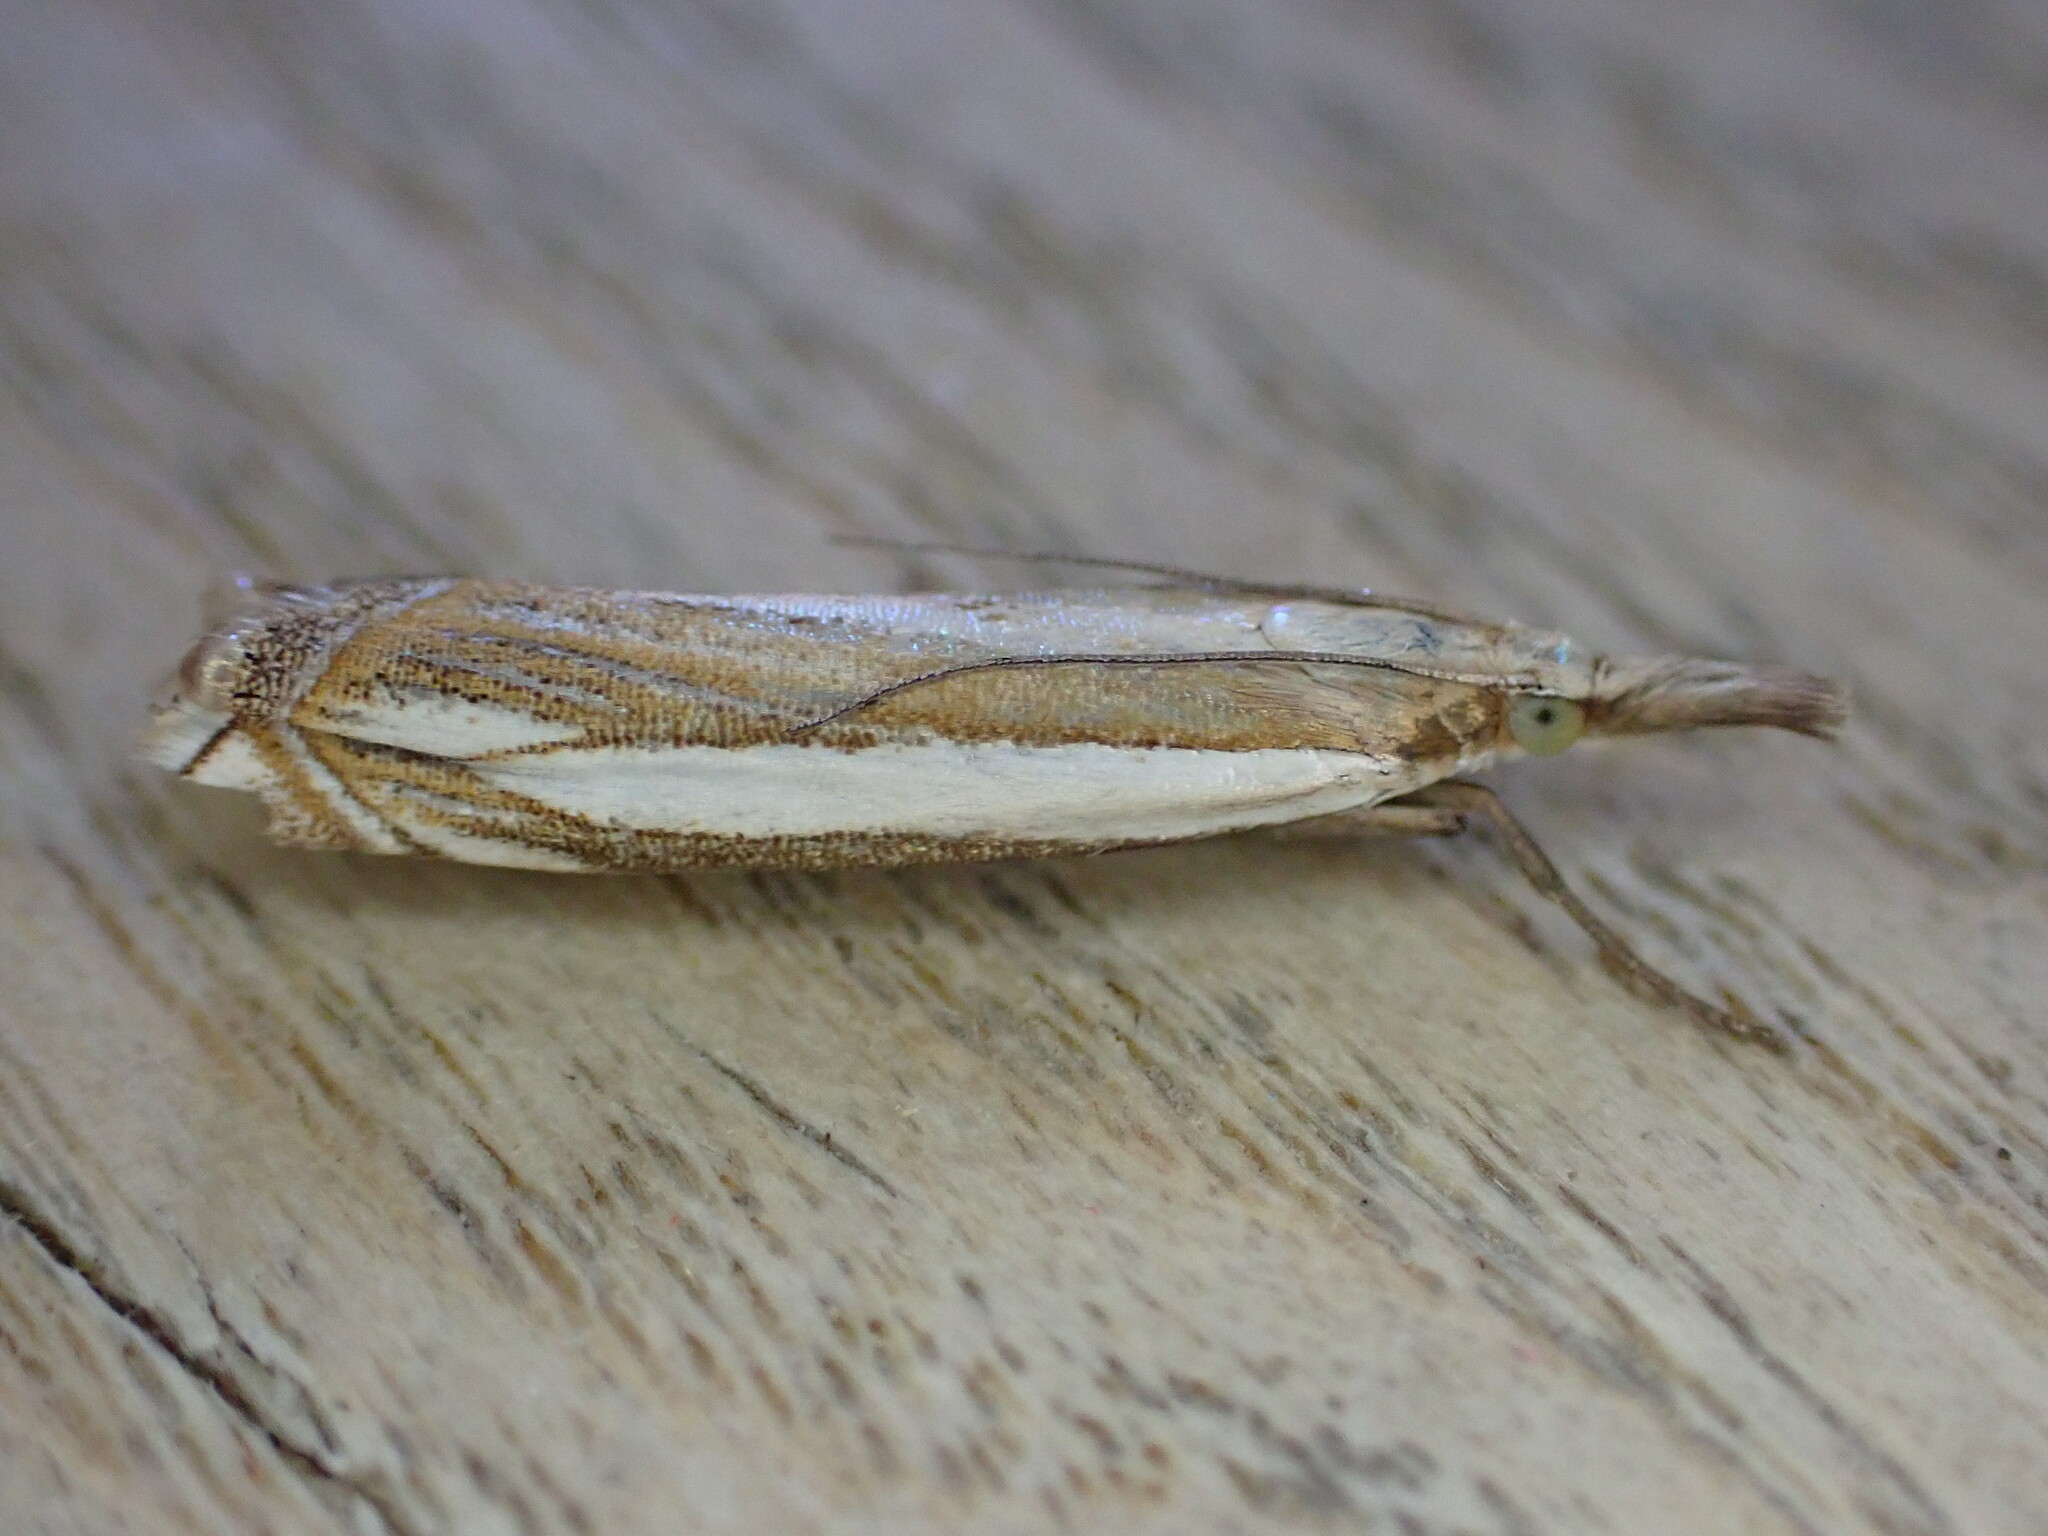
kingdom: Animalia
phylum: Arthropoda
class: Insecta
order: Lepidoptera
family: Crambidae
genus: Crambus
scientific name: Crambus pascuella
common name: Inlaid grass-veneer
